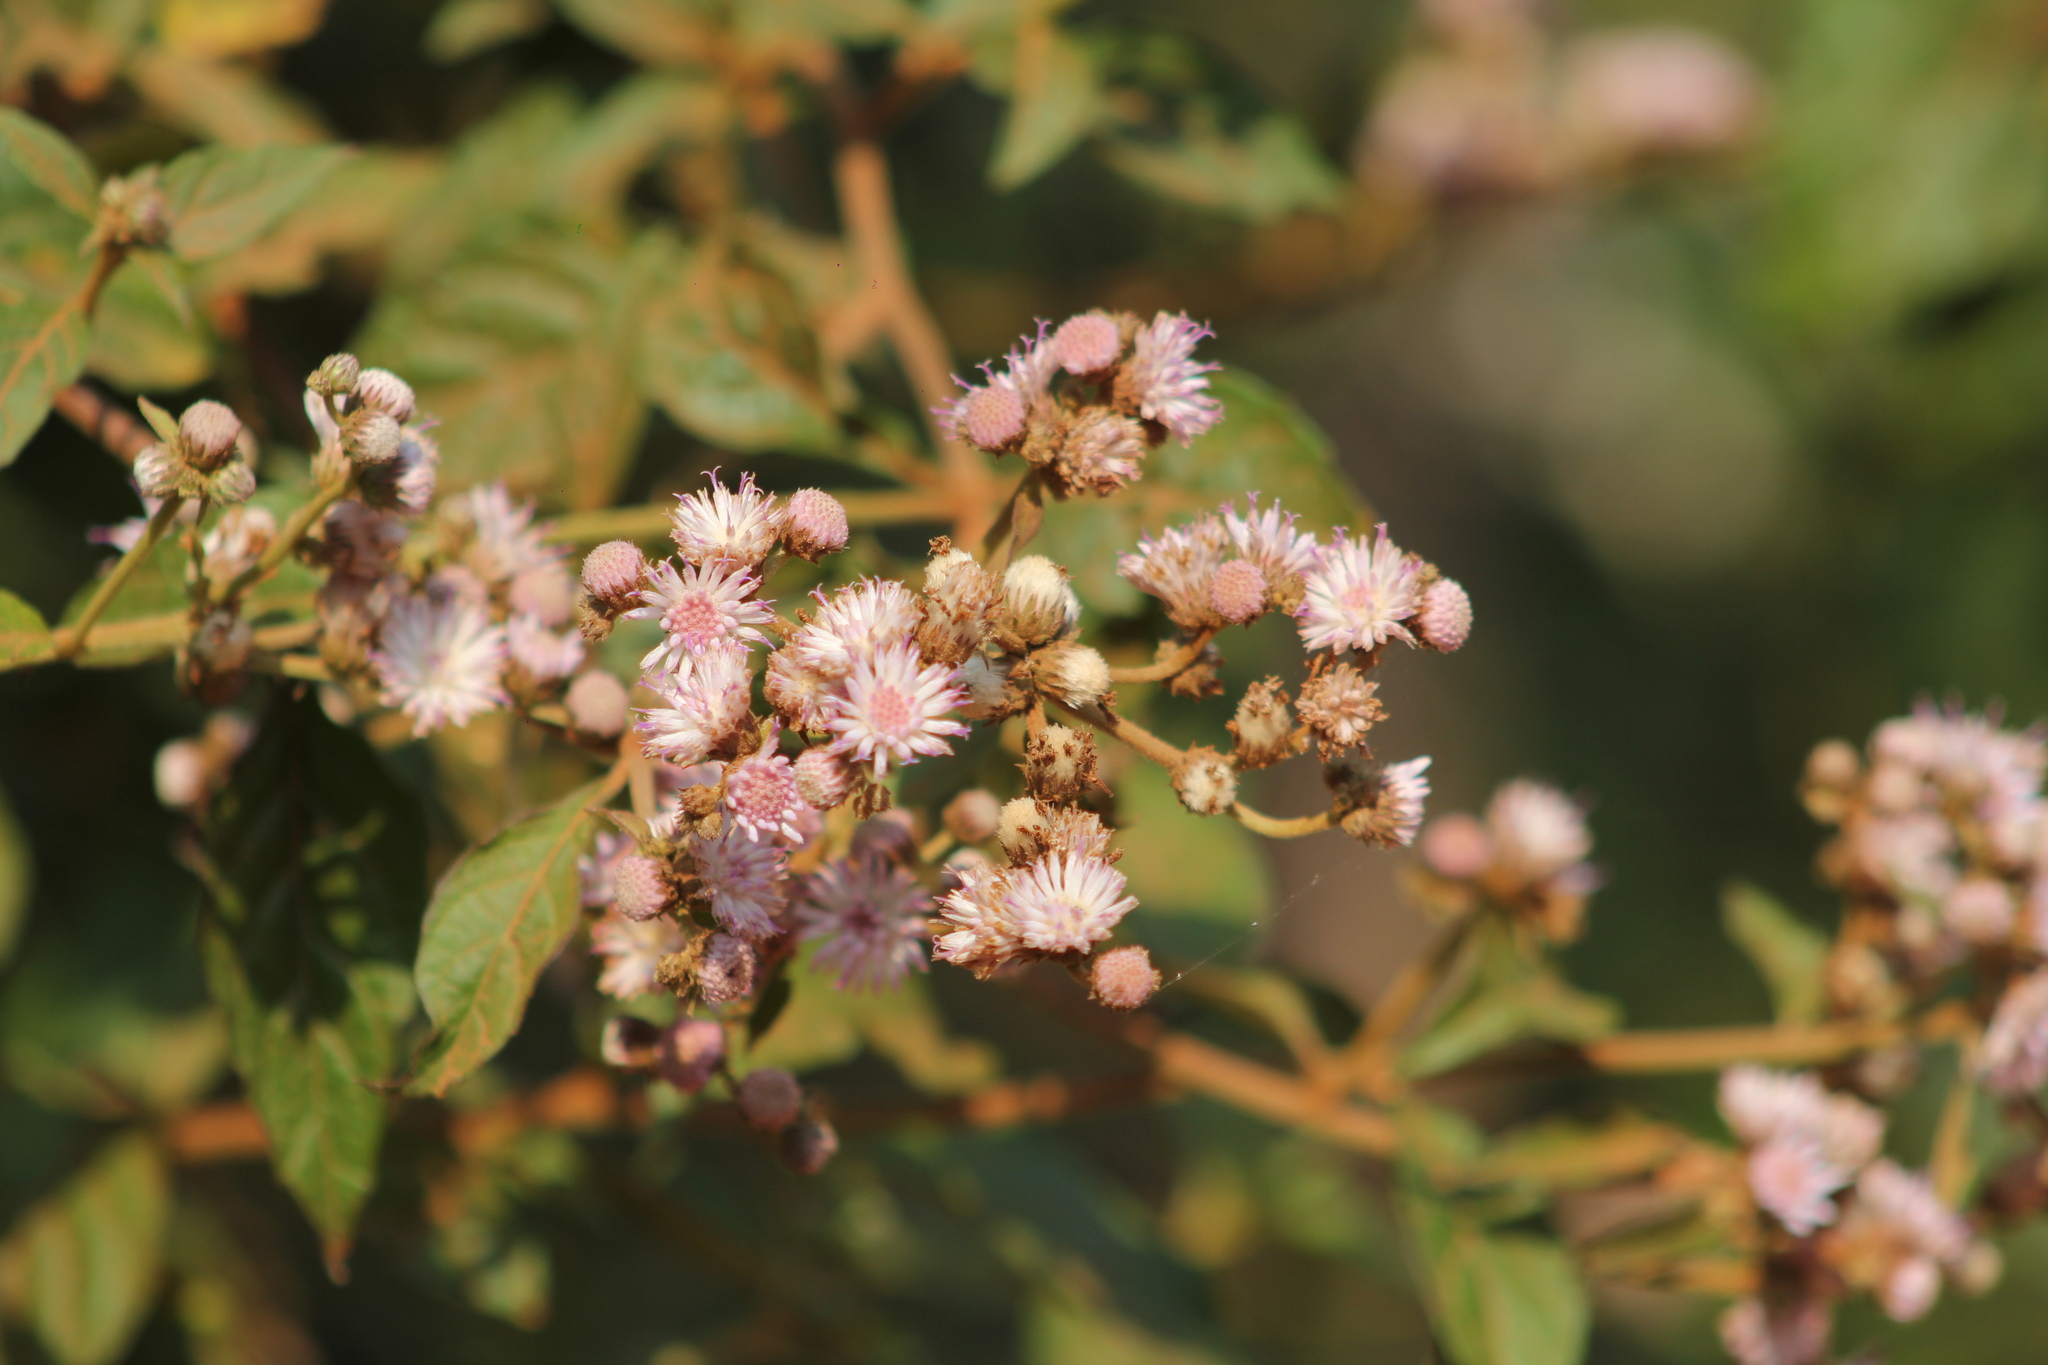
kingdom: Plantae
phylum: Tracheophyta
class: Magnoliopsida
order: Asterales
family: Asteraceae
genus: Cyrtocymura
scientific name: Cyrtocymura scorpioides
